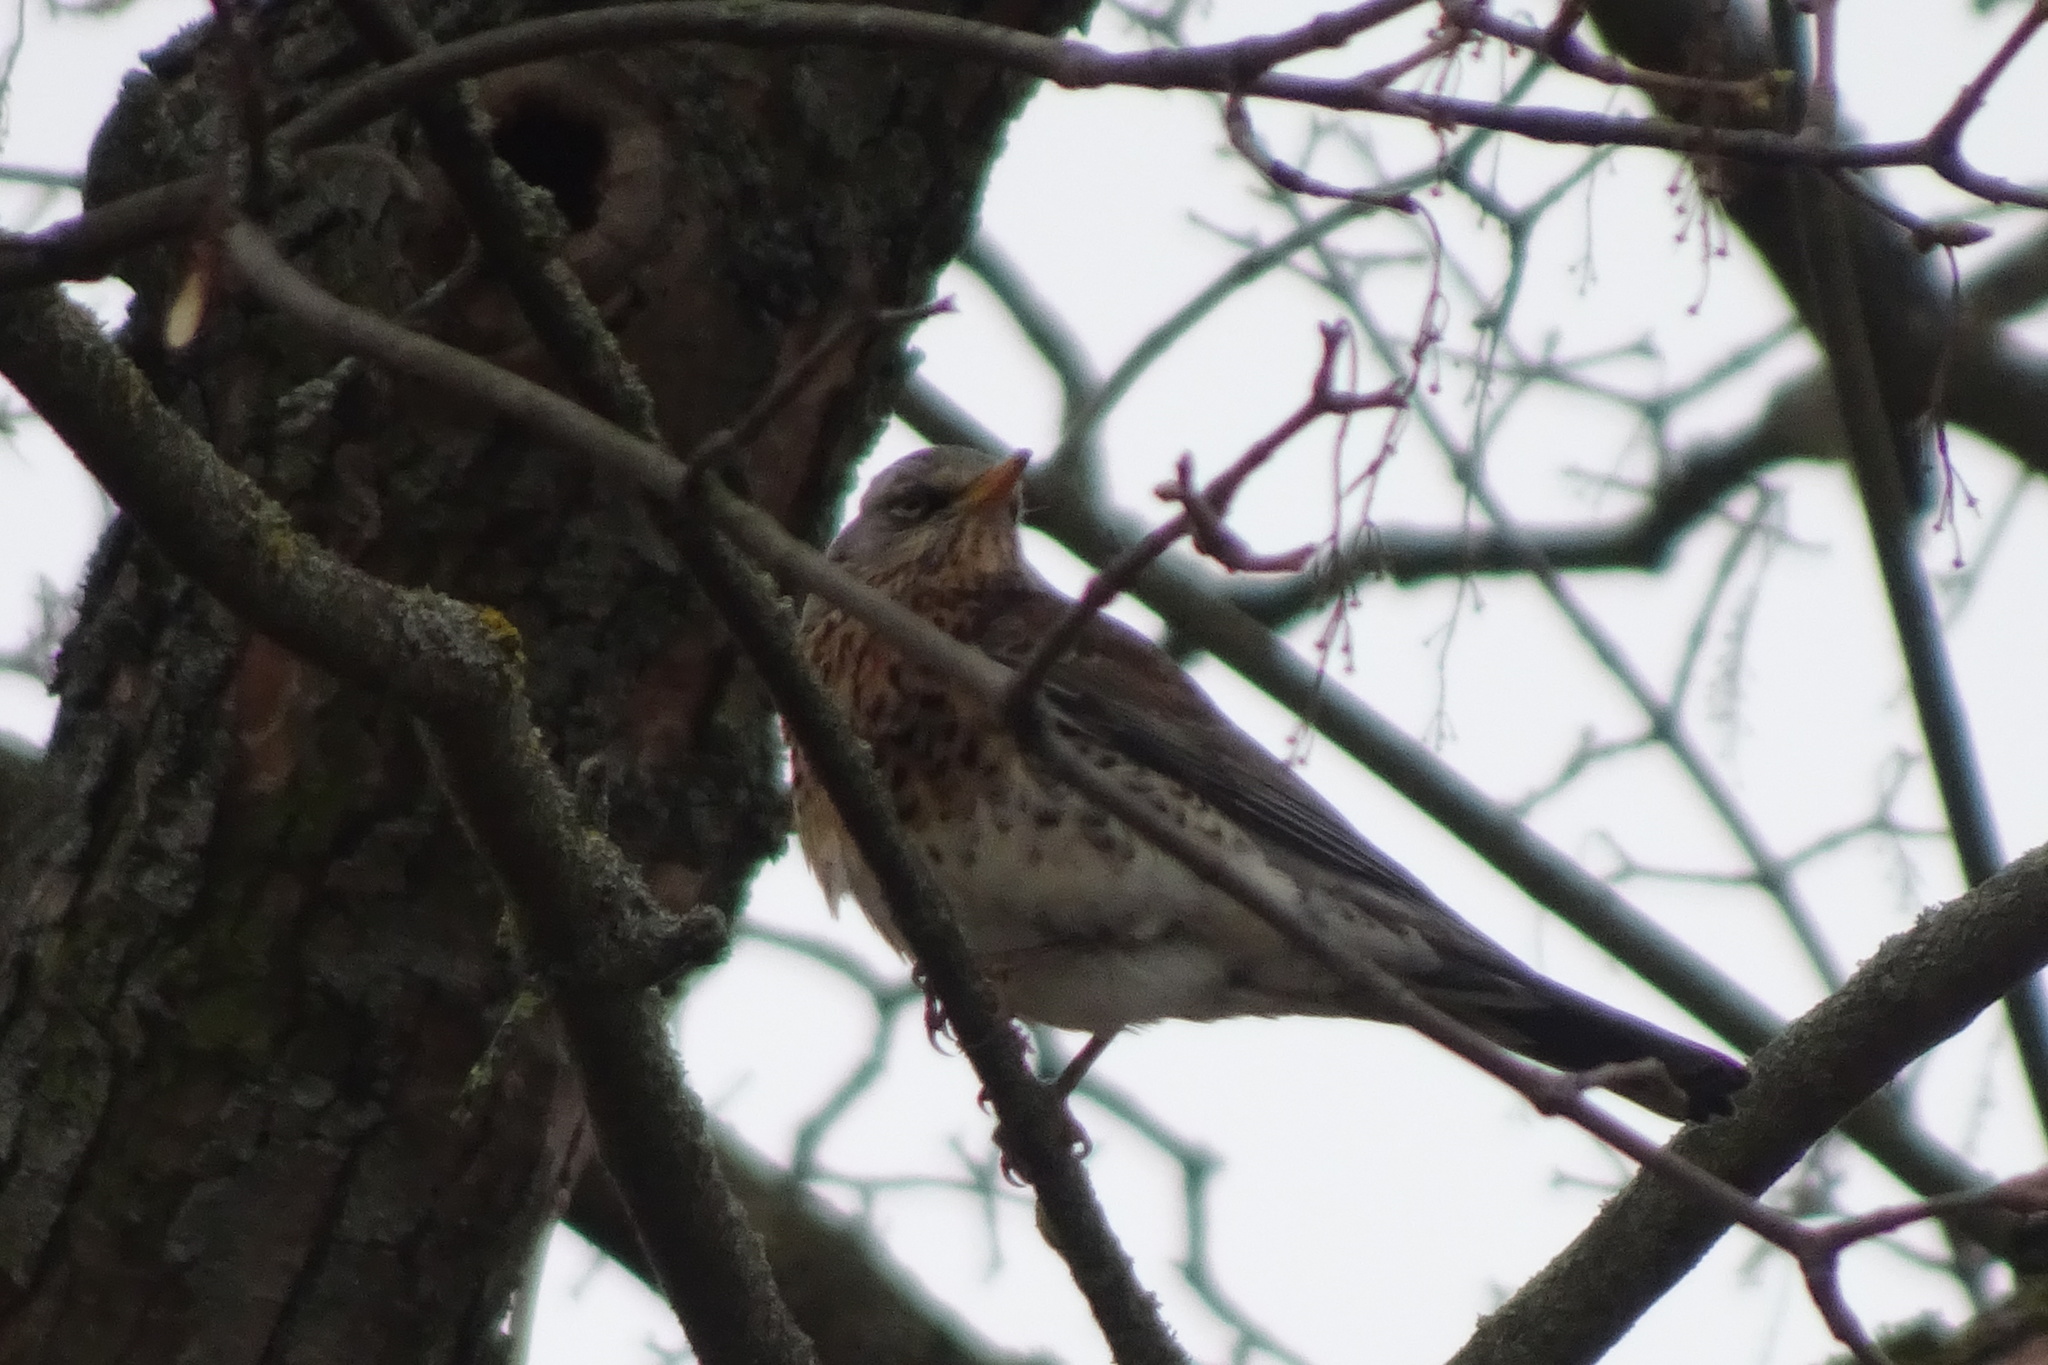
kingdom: Animalia
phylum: Chordata
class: Aves
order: Passeriformes
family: Turdidae
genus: Turdus
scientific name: Turdus pilaris
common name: Fieldfare
